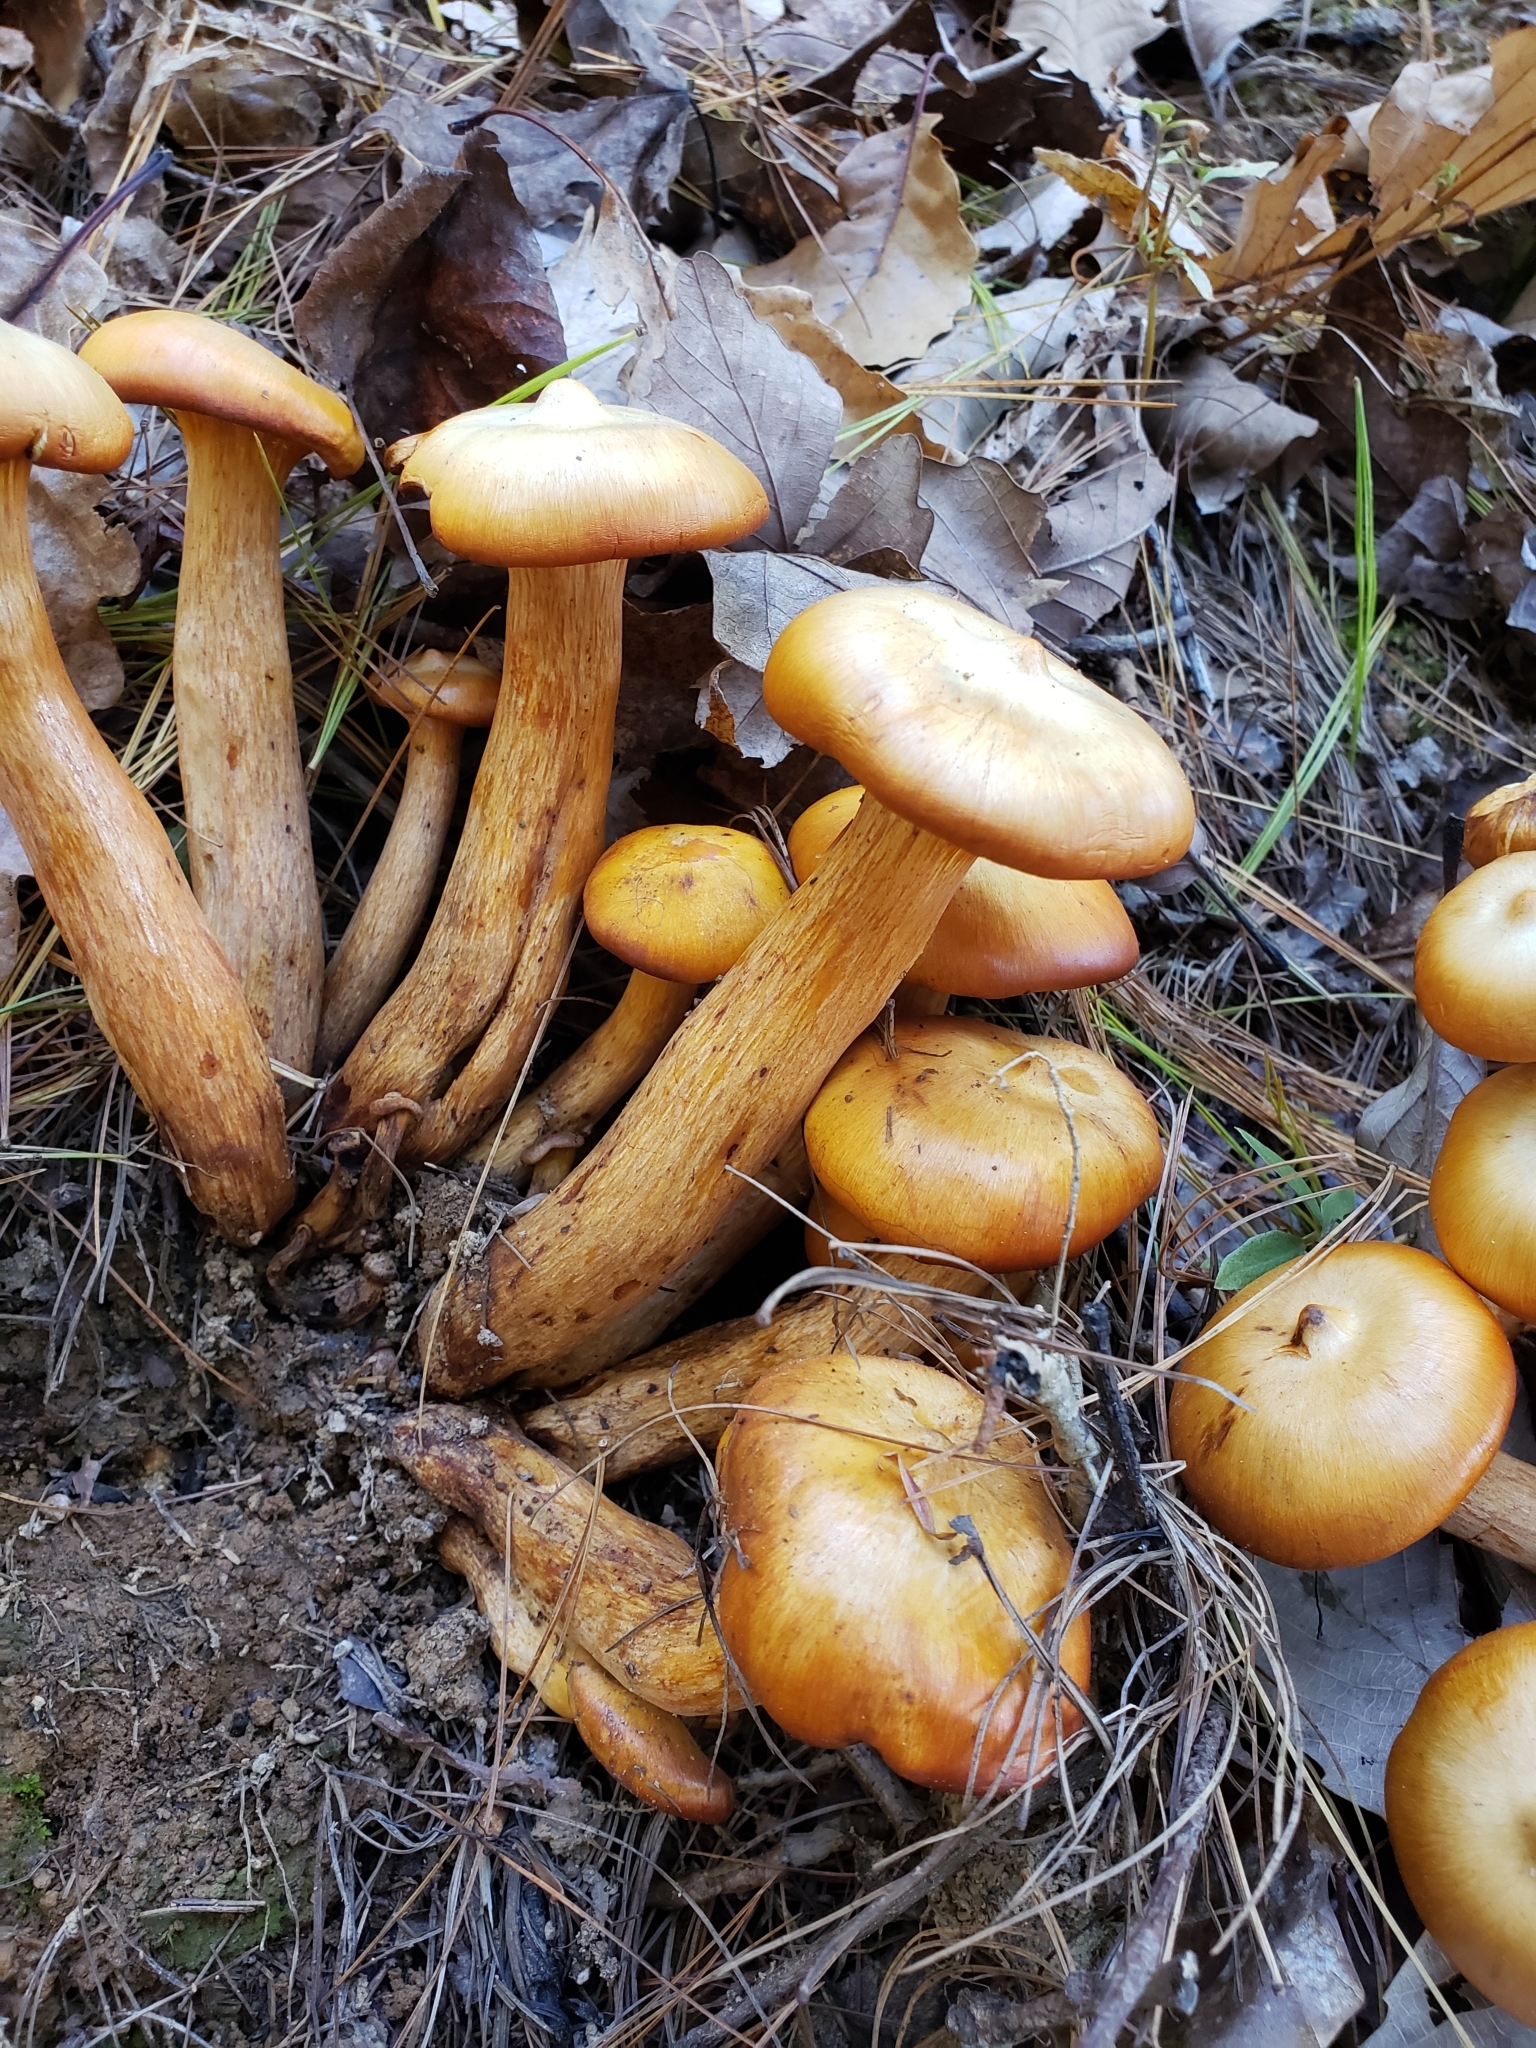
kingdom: Fungi
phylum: Basidiomycota
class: Agaricomycetes
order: Agaricales
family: Omphalotaceae
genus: Omphalotus
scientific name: Omphalotus illudens
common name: Jack o lantern
